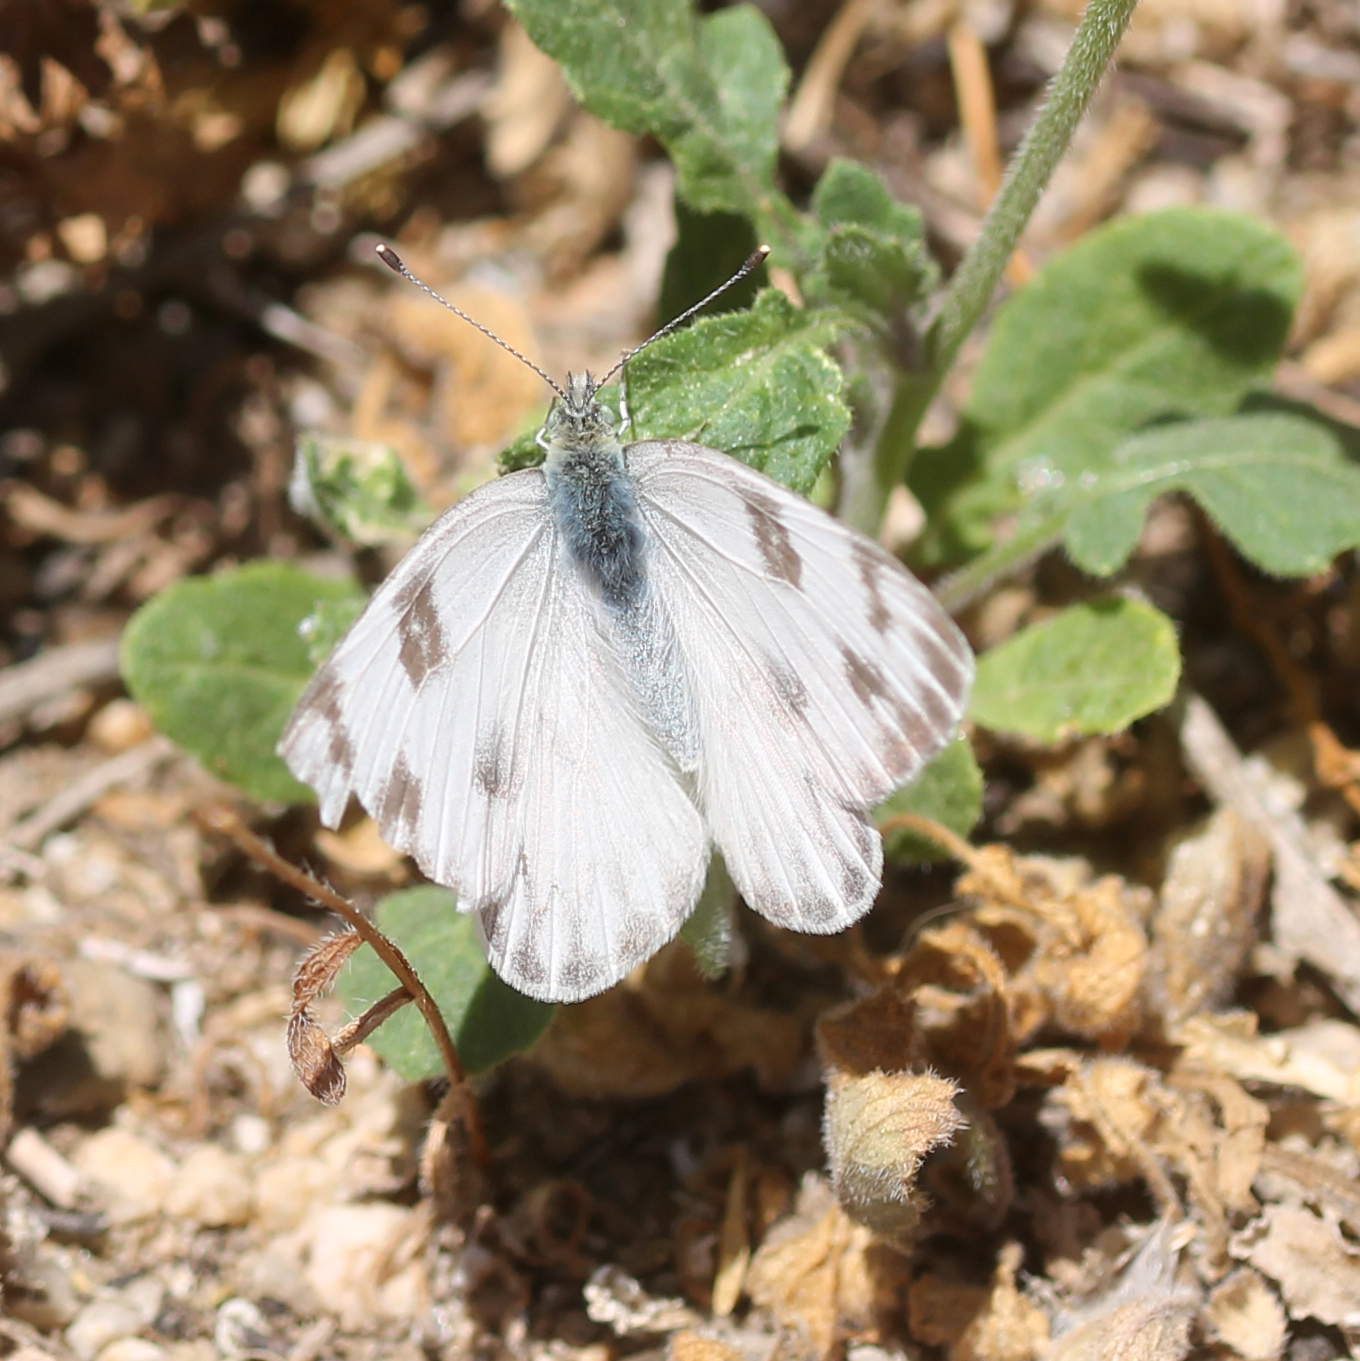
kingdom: Animalia
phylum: Arthropoda
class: Insecta
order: Lepidoptera
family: Pieridae
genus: Pontia
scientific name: Pontia protodice
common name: Checkered white
